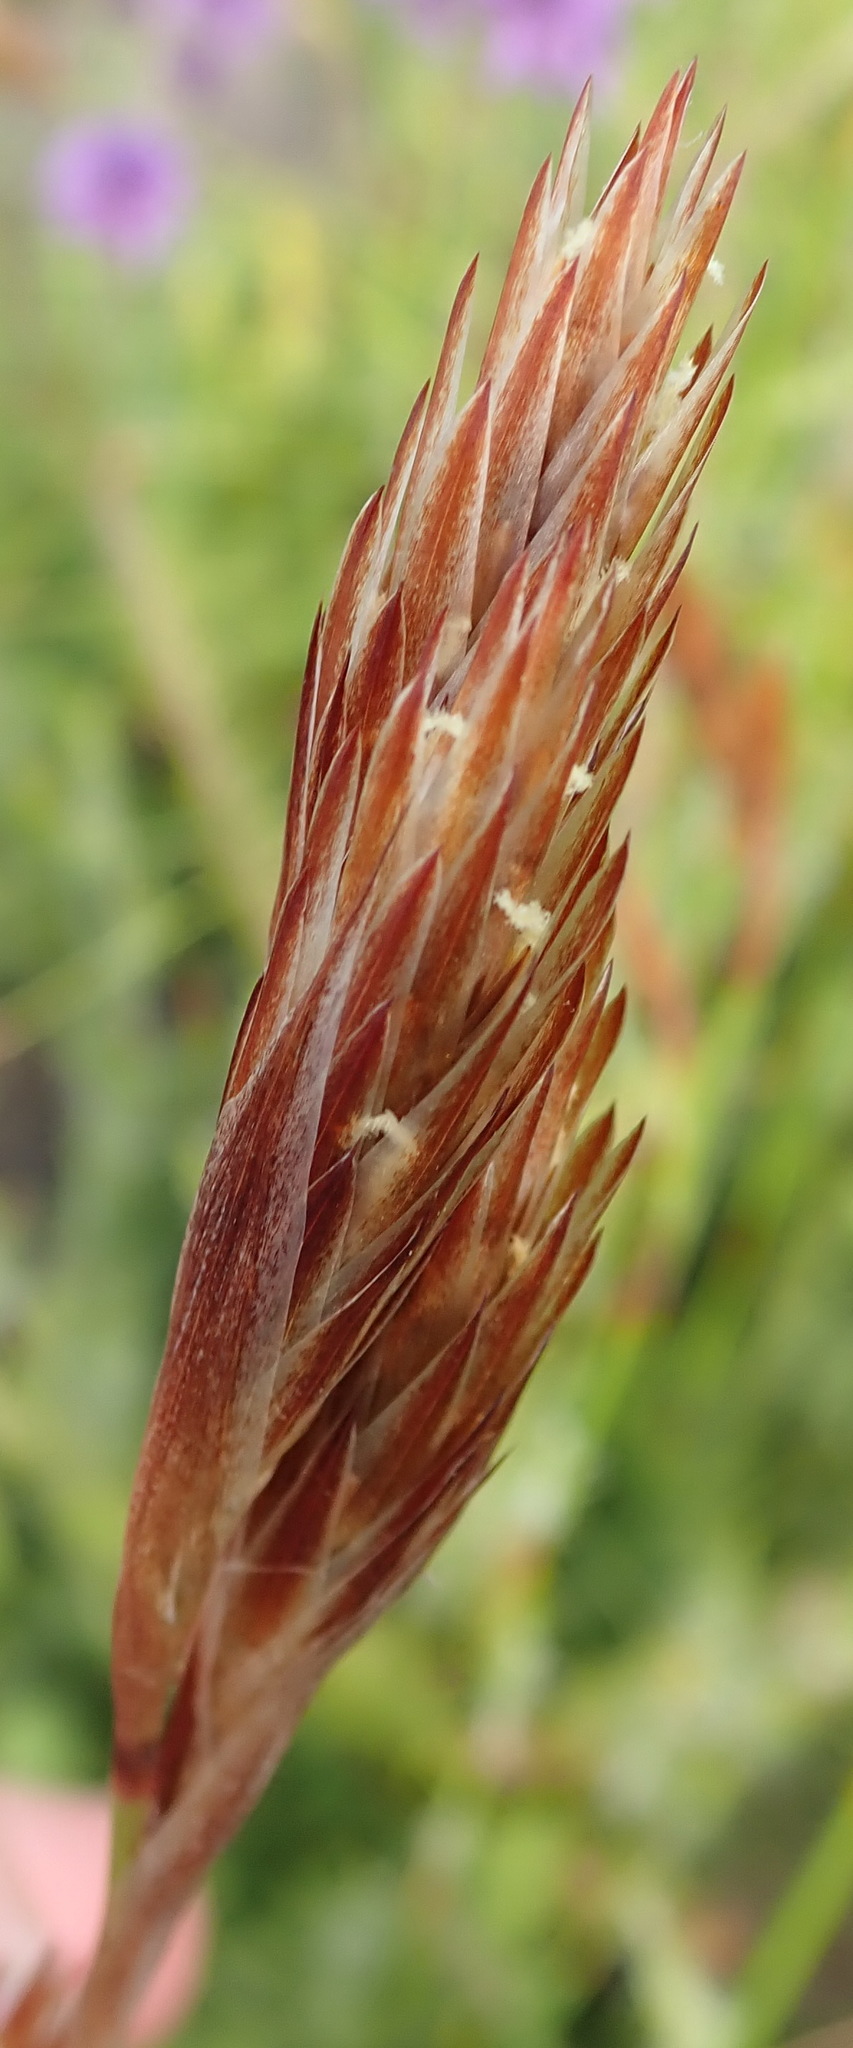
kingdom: Plantae
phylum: Tracheophyta
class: Liliopsida
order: Poales
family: Restionaceae
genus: Thamnochortus
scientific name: Thamnochortus glaber
